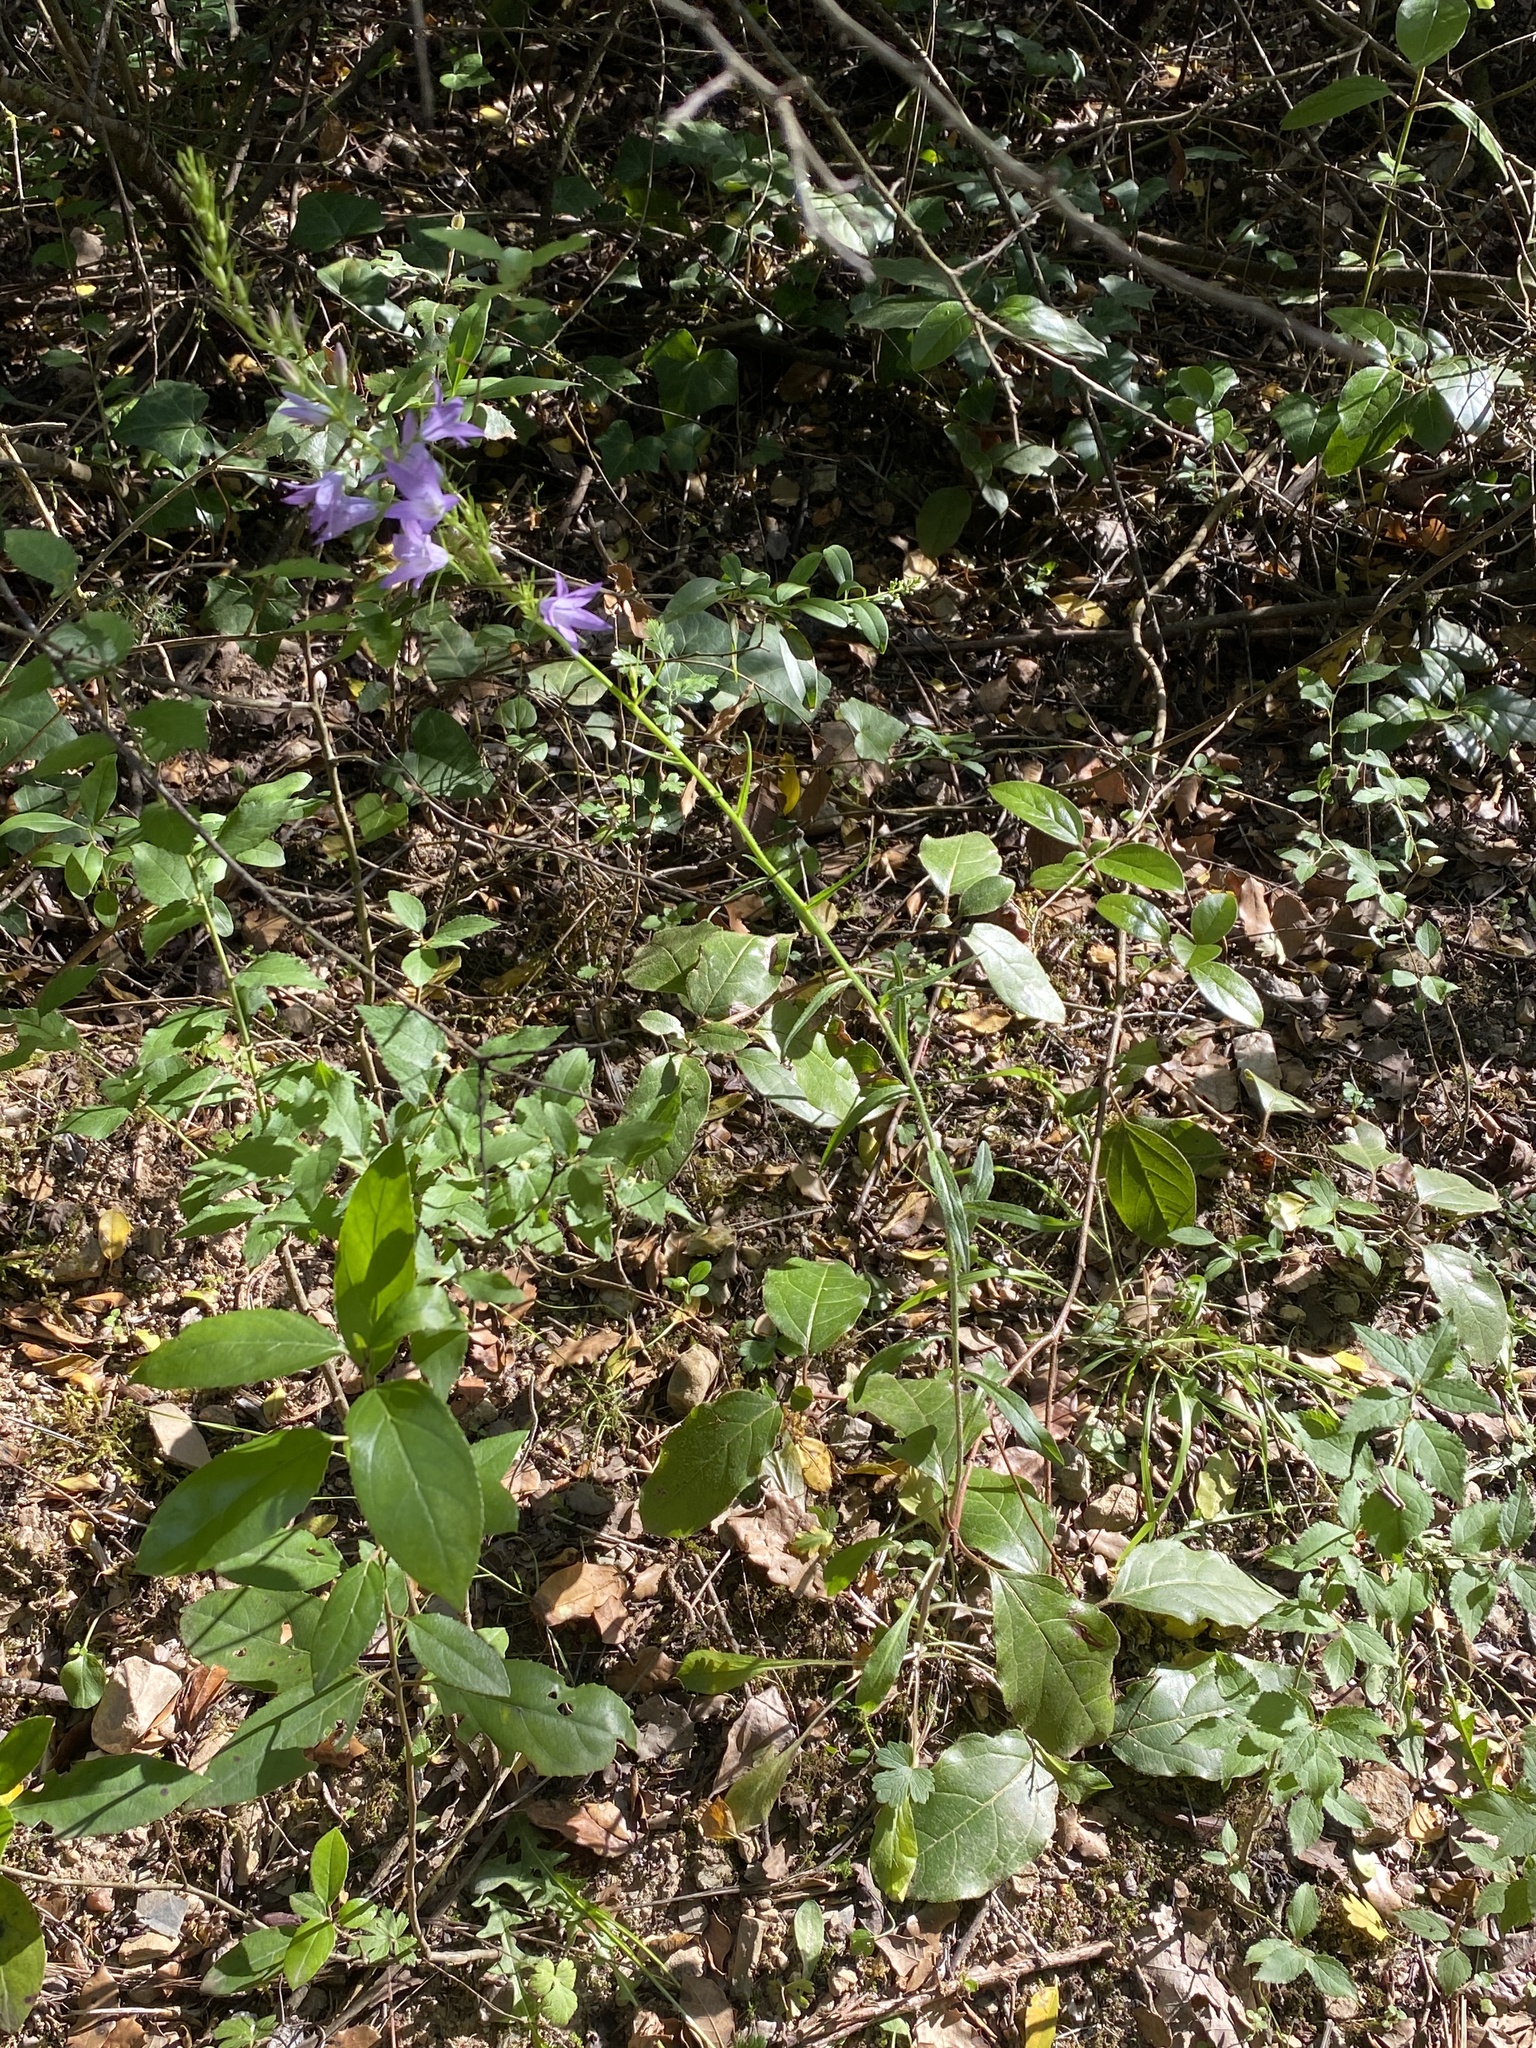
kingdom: Plantae
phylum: Tracheophyta
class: Magnoliopsida
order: Asterales
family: Campanulaceae
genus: Campanula
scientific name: Campanula rapunculus
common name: Rampion bellflower
